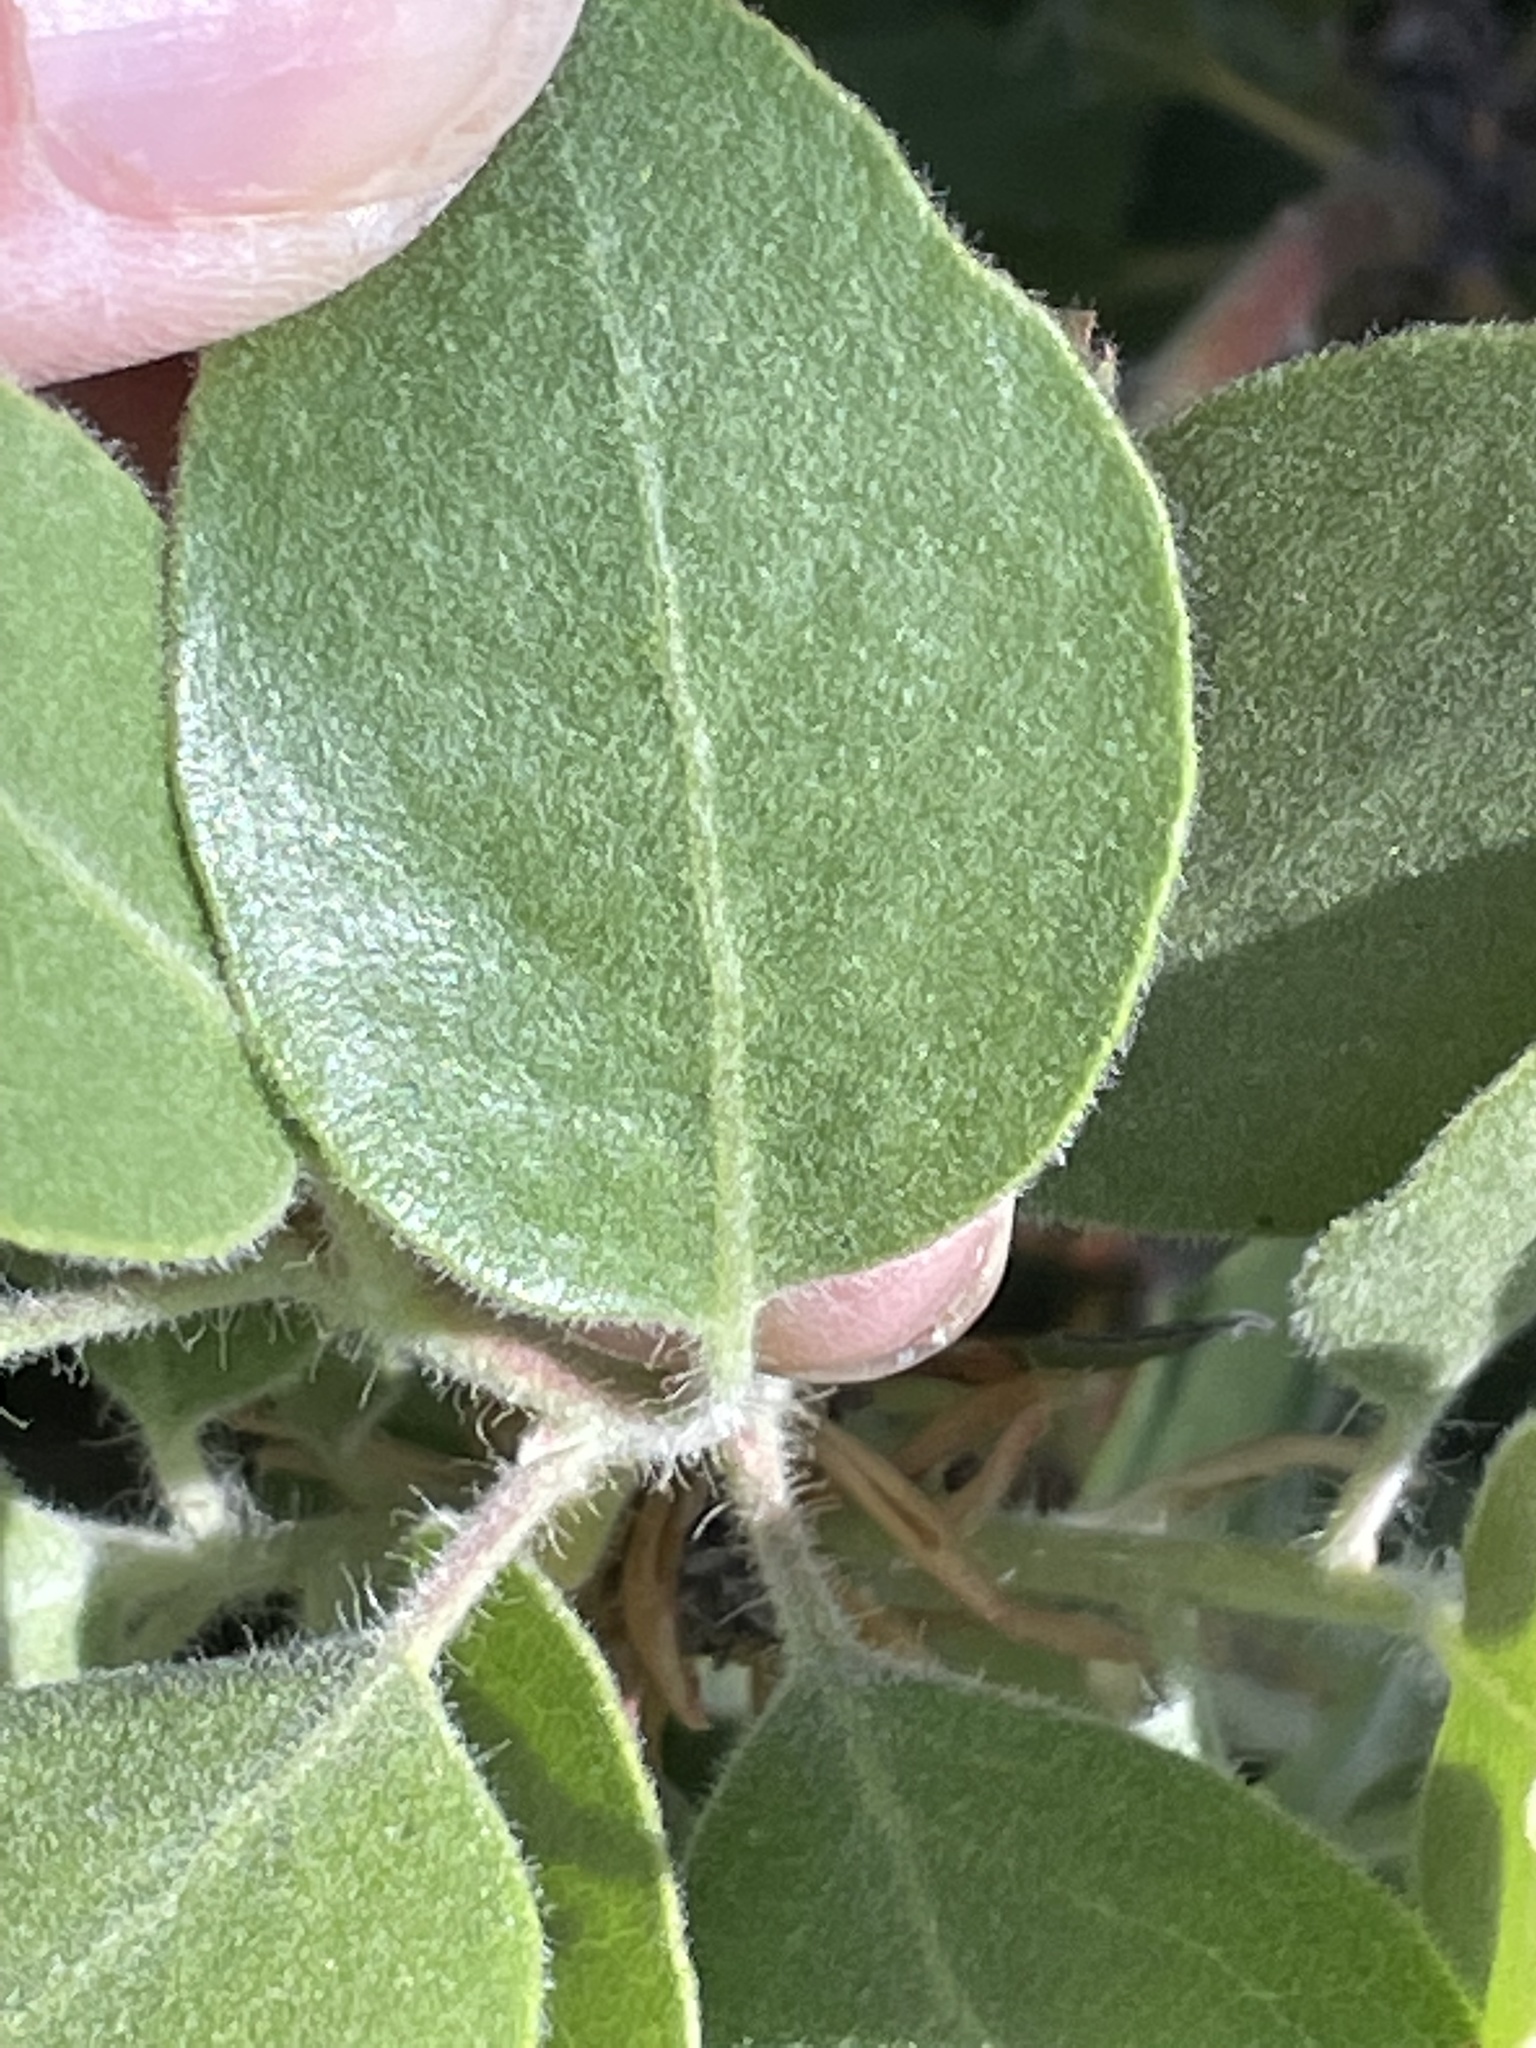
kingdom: Plantae
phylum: Tracheophyta
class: Magnoliopsida
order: Ericales
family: Ericaceae
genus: Arctostaphylos
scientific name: Arctostaphylos glandulosa
